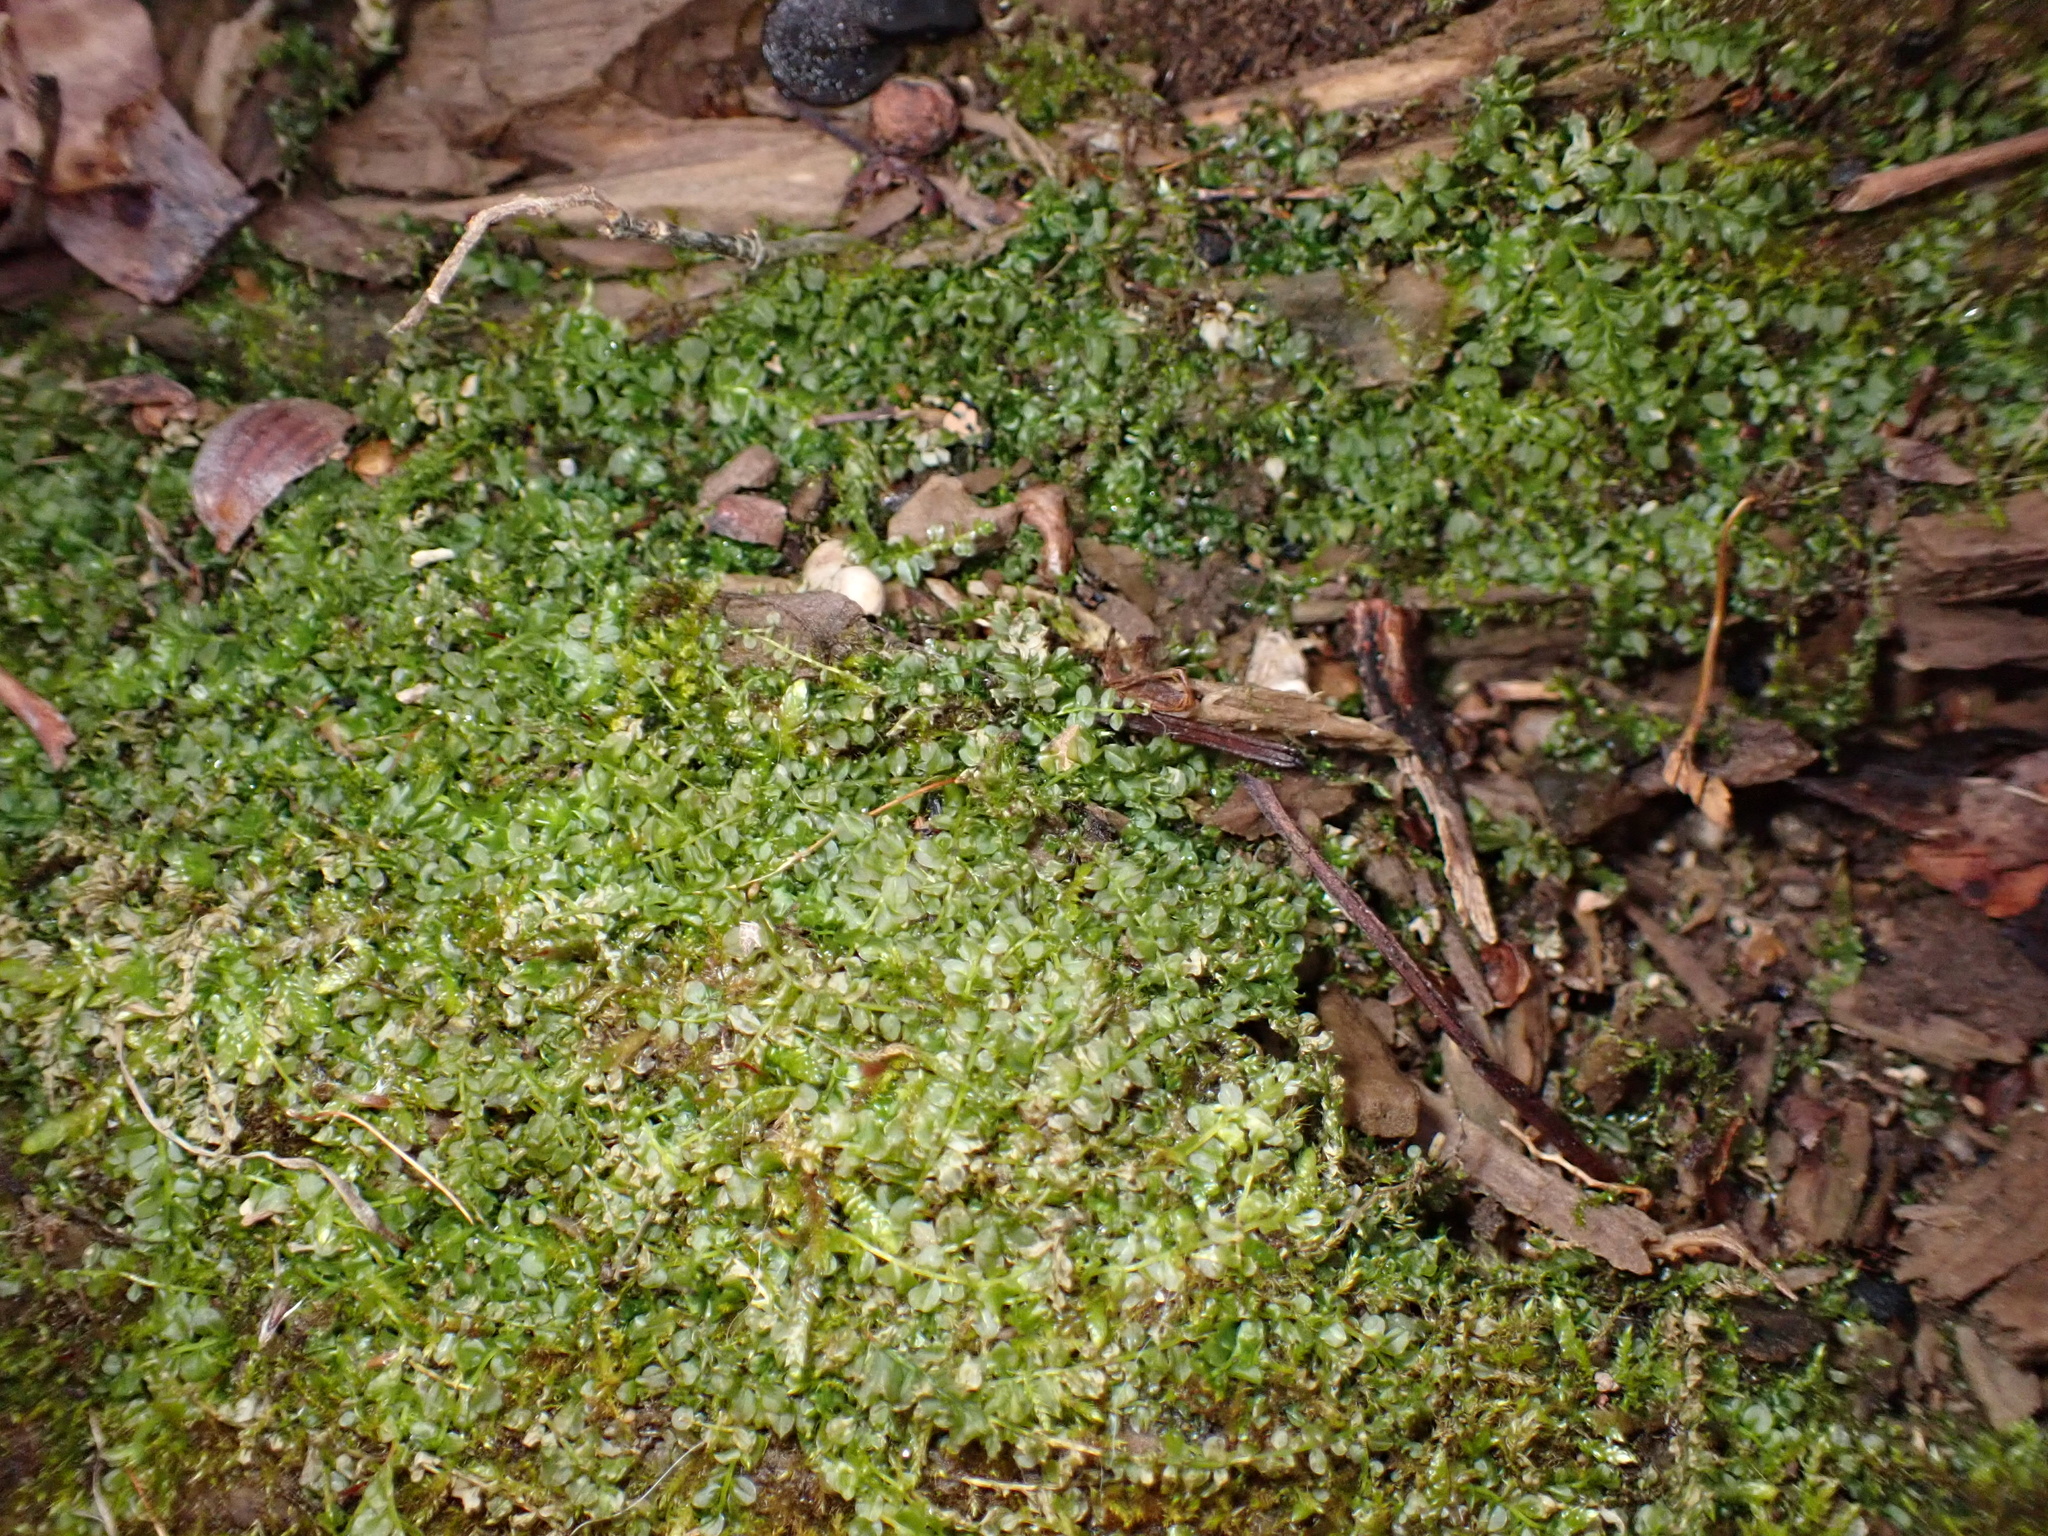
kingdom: Plantae
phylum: Bryophyta
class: Bryopsida
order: Bryales
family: Mniaceae
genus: Plagiomnium
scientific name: Plagiomnium cuspidatum
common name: Woodsy leafy moss
